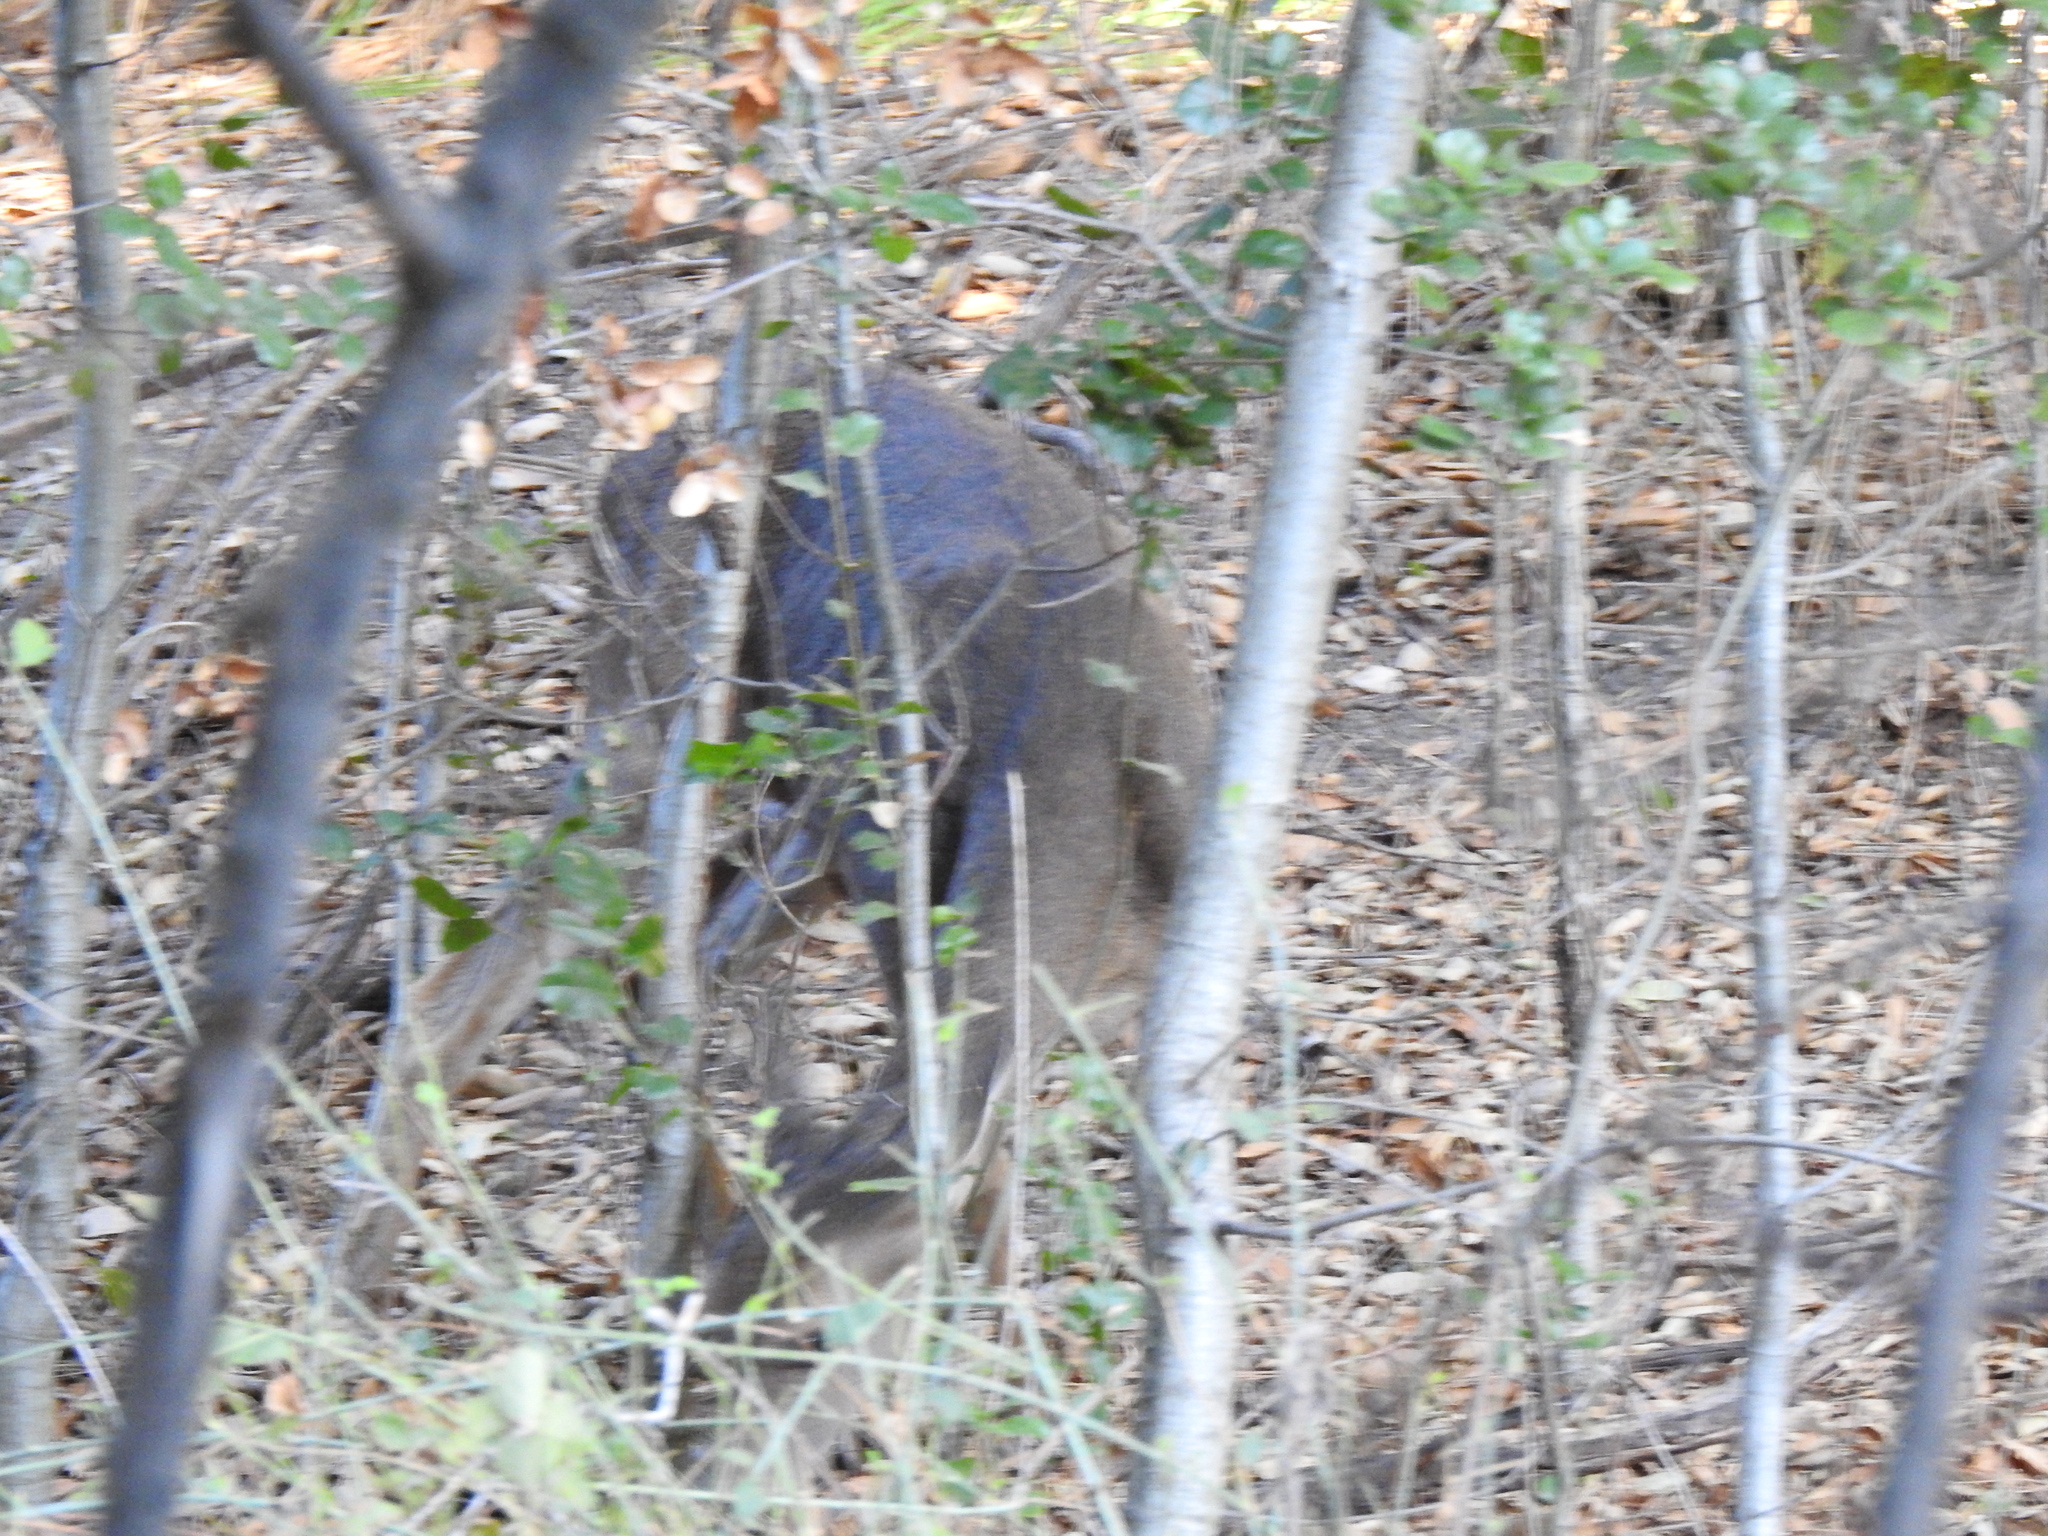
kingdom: Animalia
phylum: Chordata
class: Mammalia
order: Artiodactyla
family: Cervidae
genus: Odocoileus
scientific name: Odocoileus hemionus
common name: Mule deer
